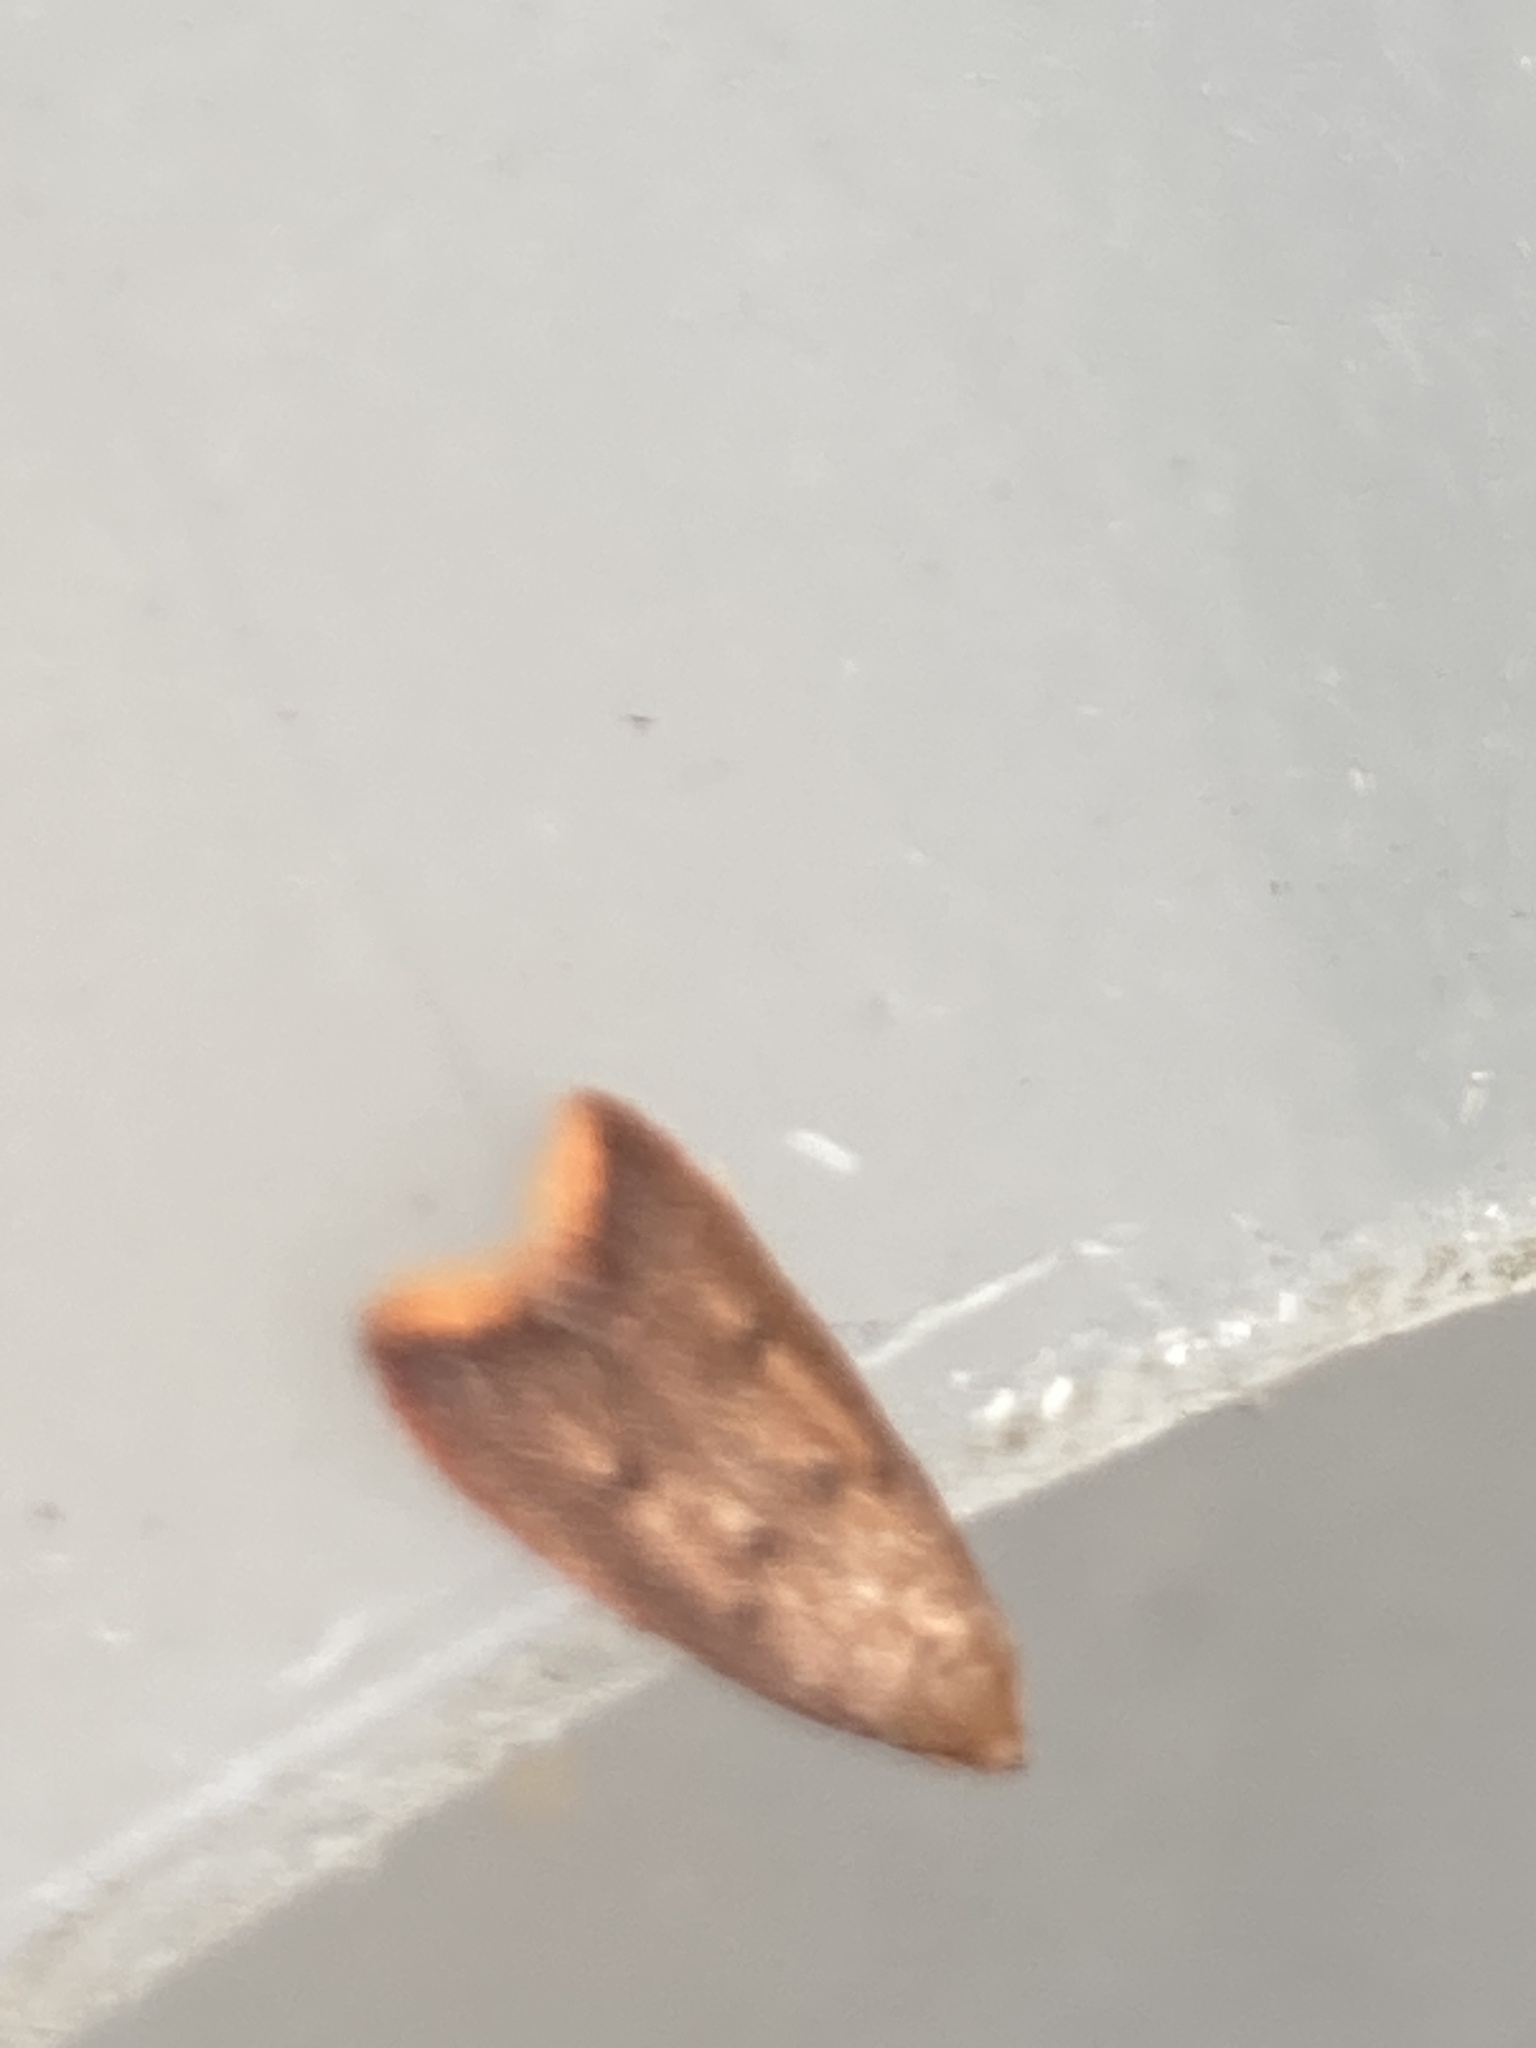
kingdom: Animalia
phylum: Arthropoda
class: Insecta
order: Lepidoptera
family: Oecophoridae
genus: Tachystola
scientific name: Tachystola acroxantha
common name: Ruddy streak
